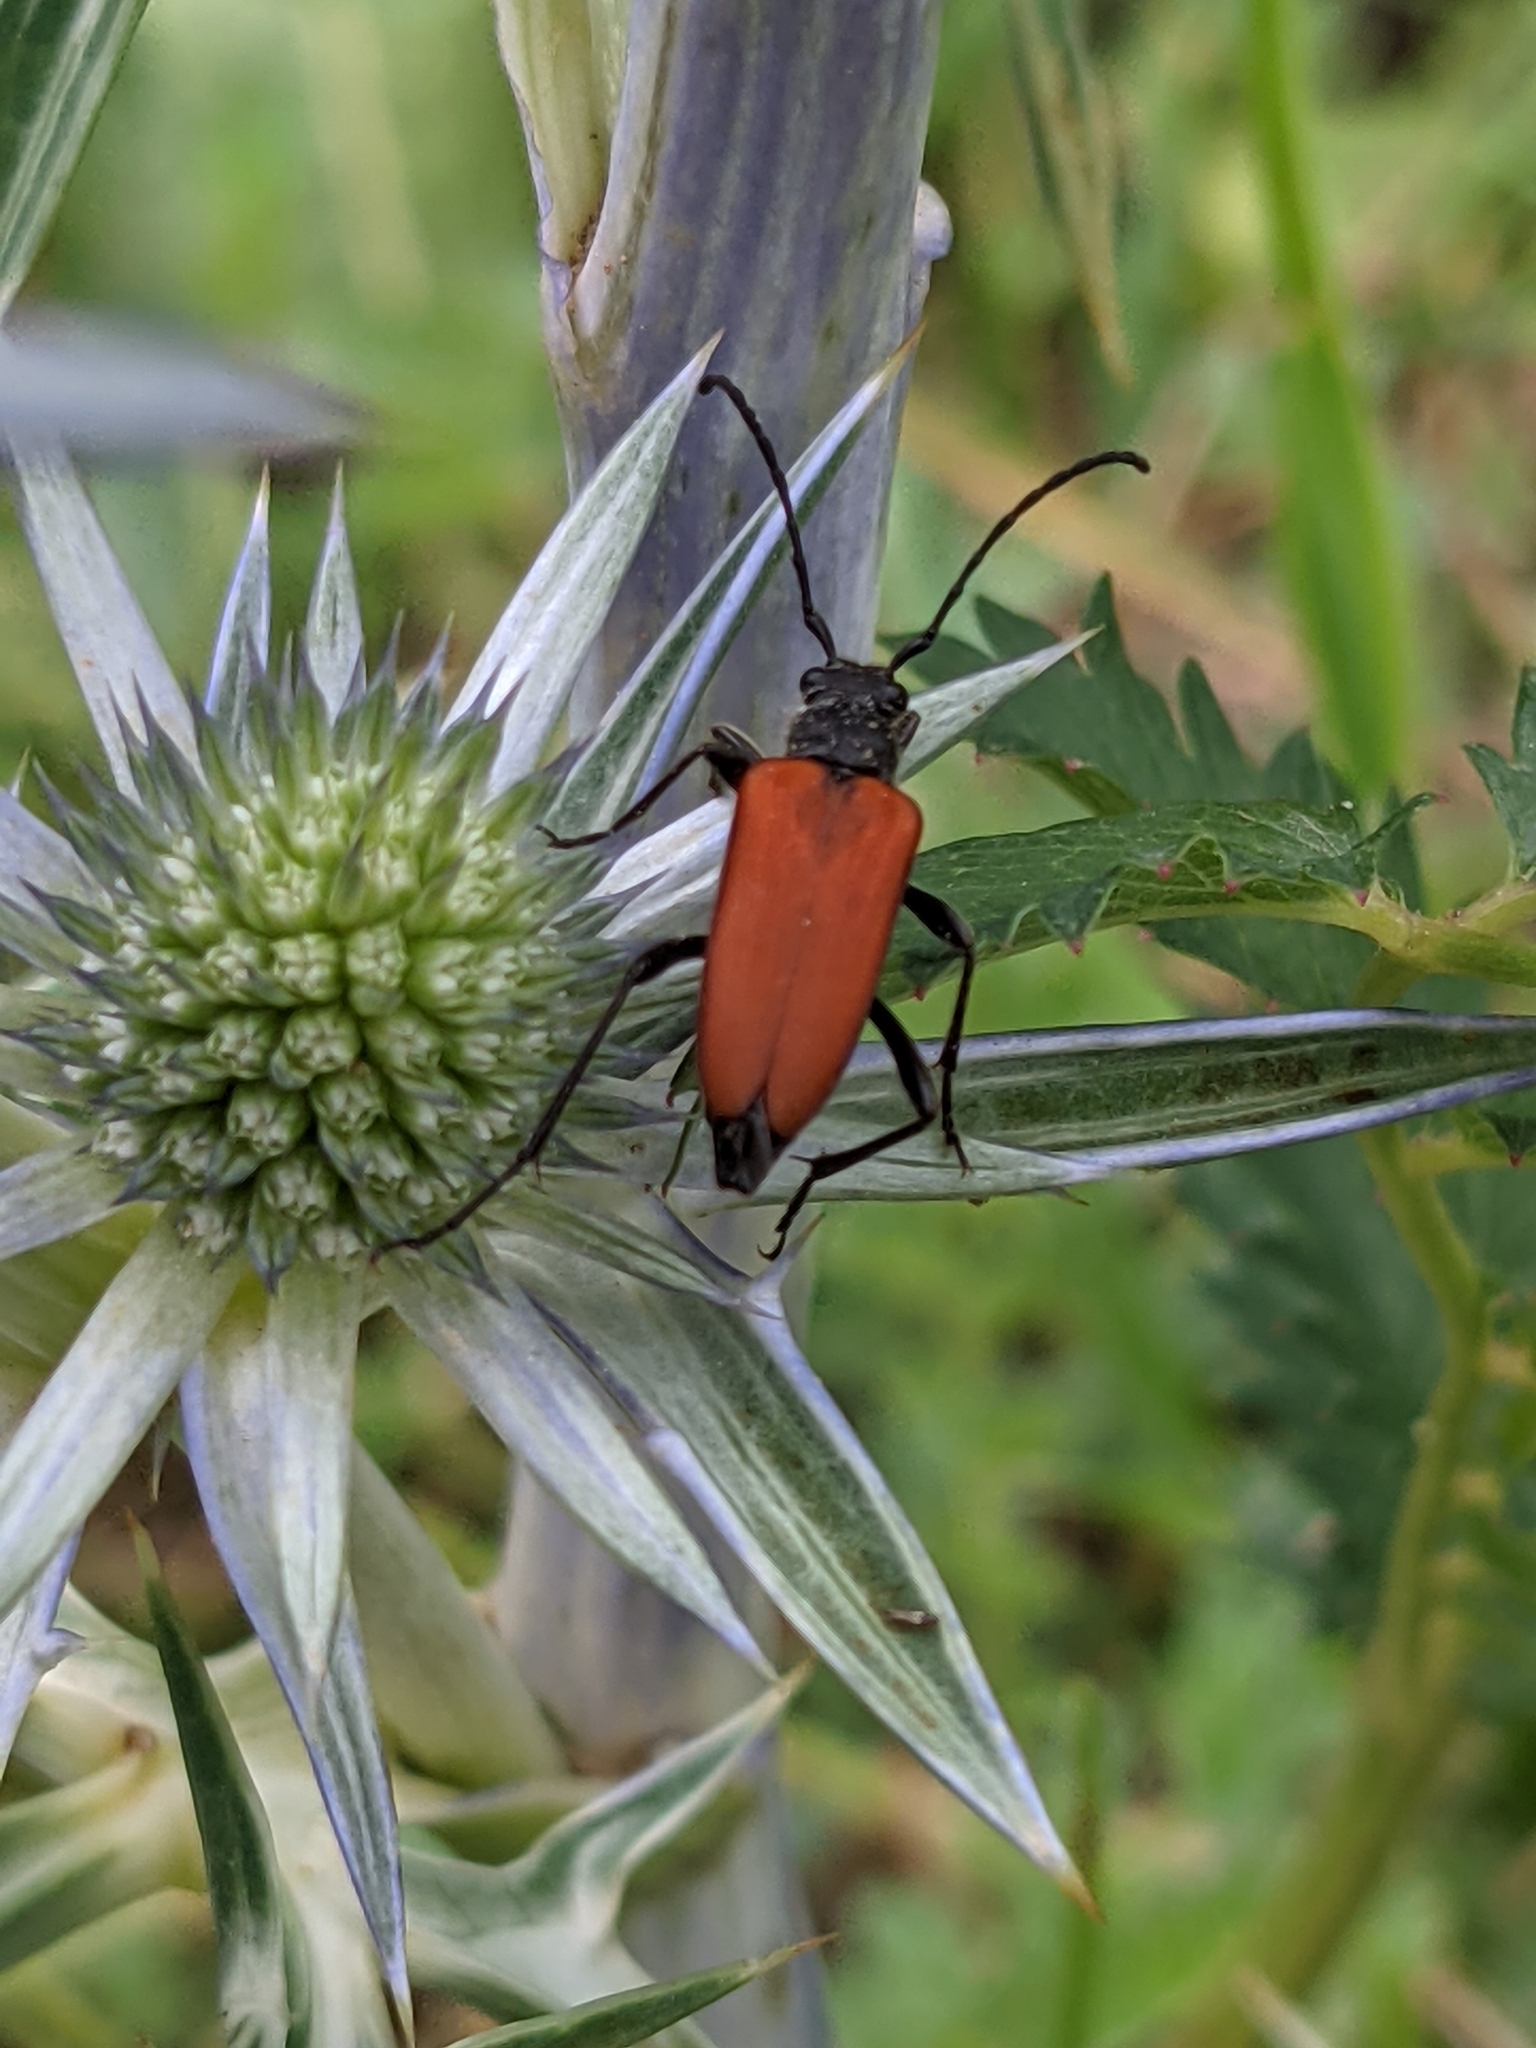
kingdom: Animalia
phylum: Arthropoda
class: Insecta
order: Coleoptera
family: Cerambycidae
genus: Anastrangalia
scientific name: Anastrangalia sanguinolenta
